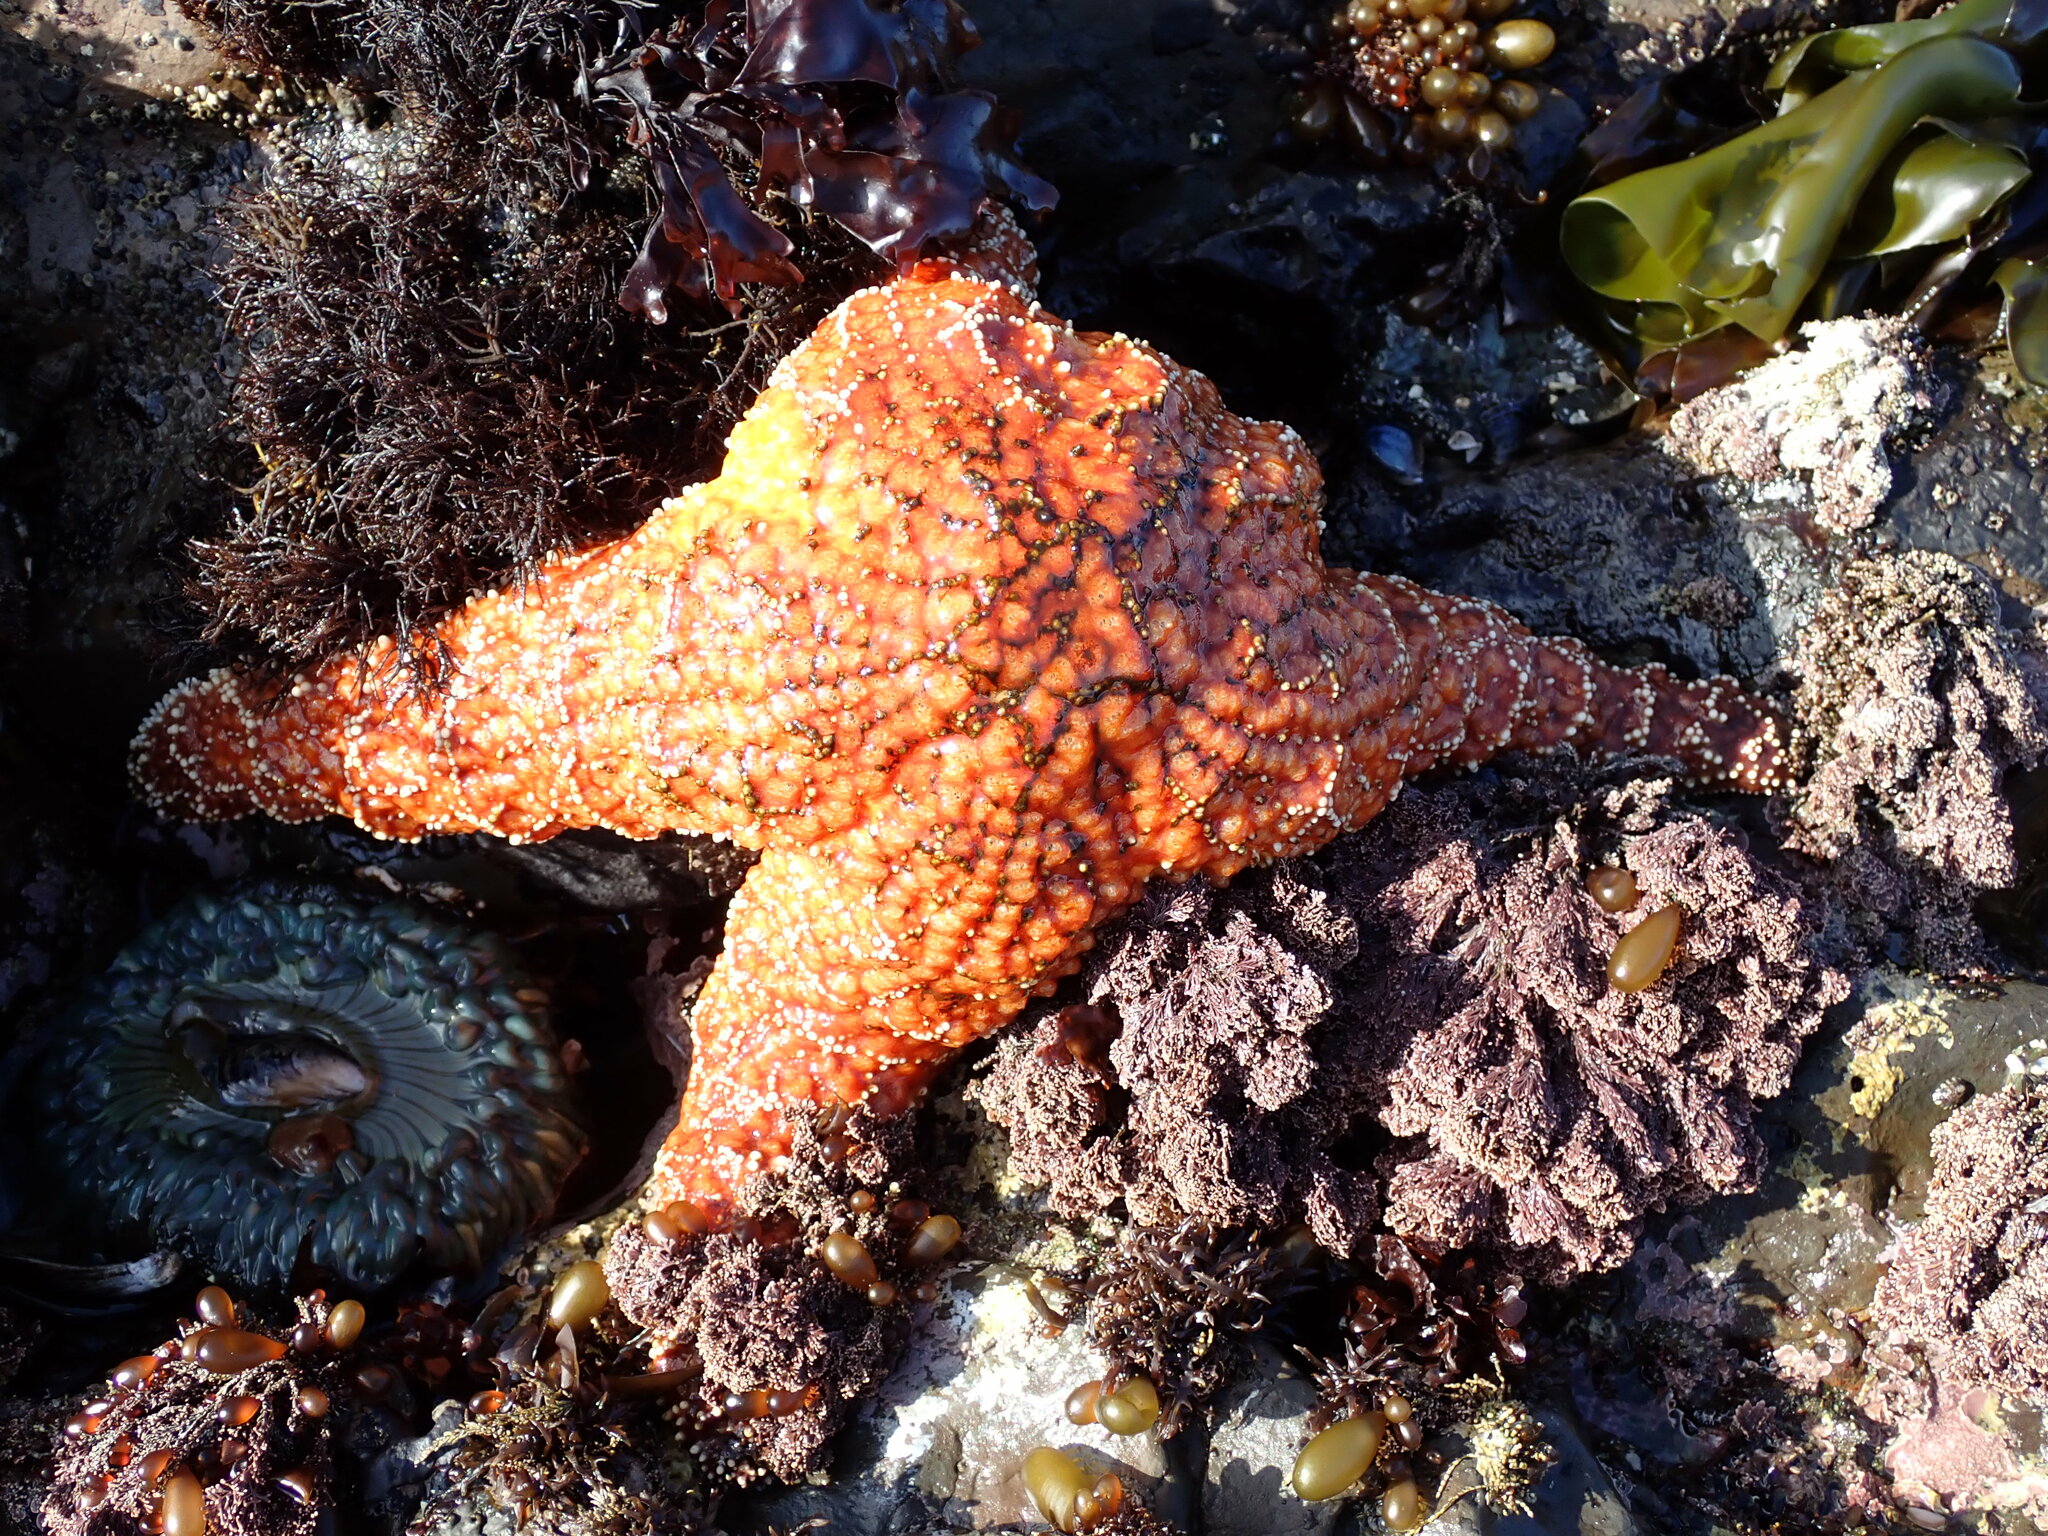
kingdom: Animalia
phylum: Echinodermata
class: Asteroidea
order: Forcipulatida
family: Asteriidae
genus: Pisaster
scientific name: Pisaster ochraceus
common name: Ochre stars
